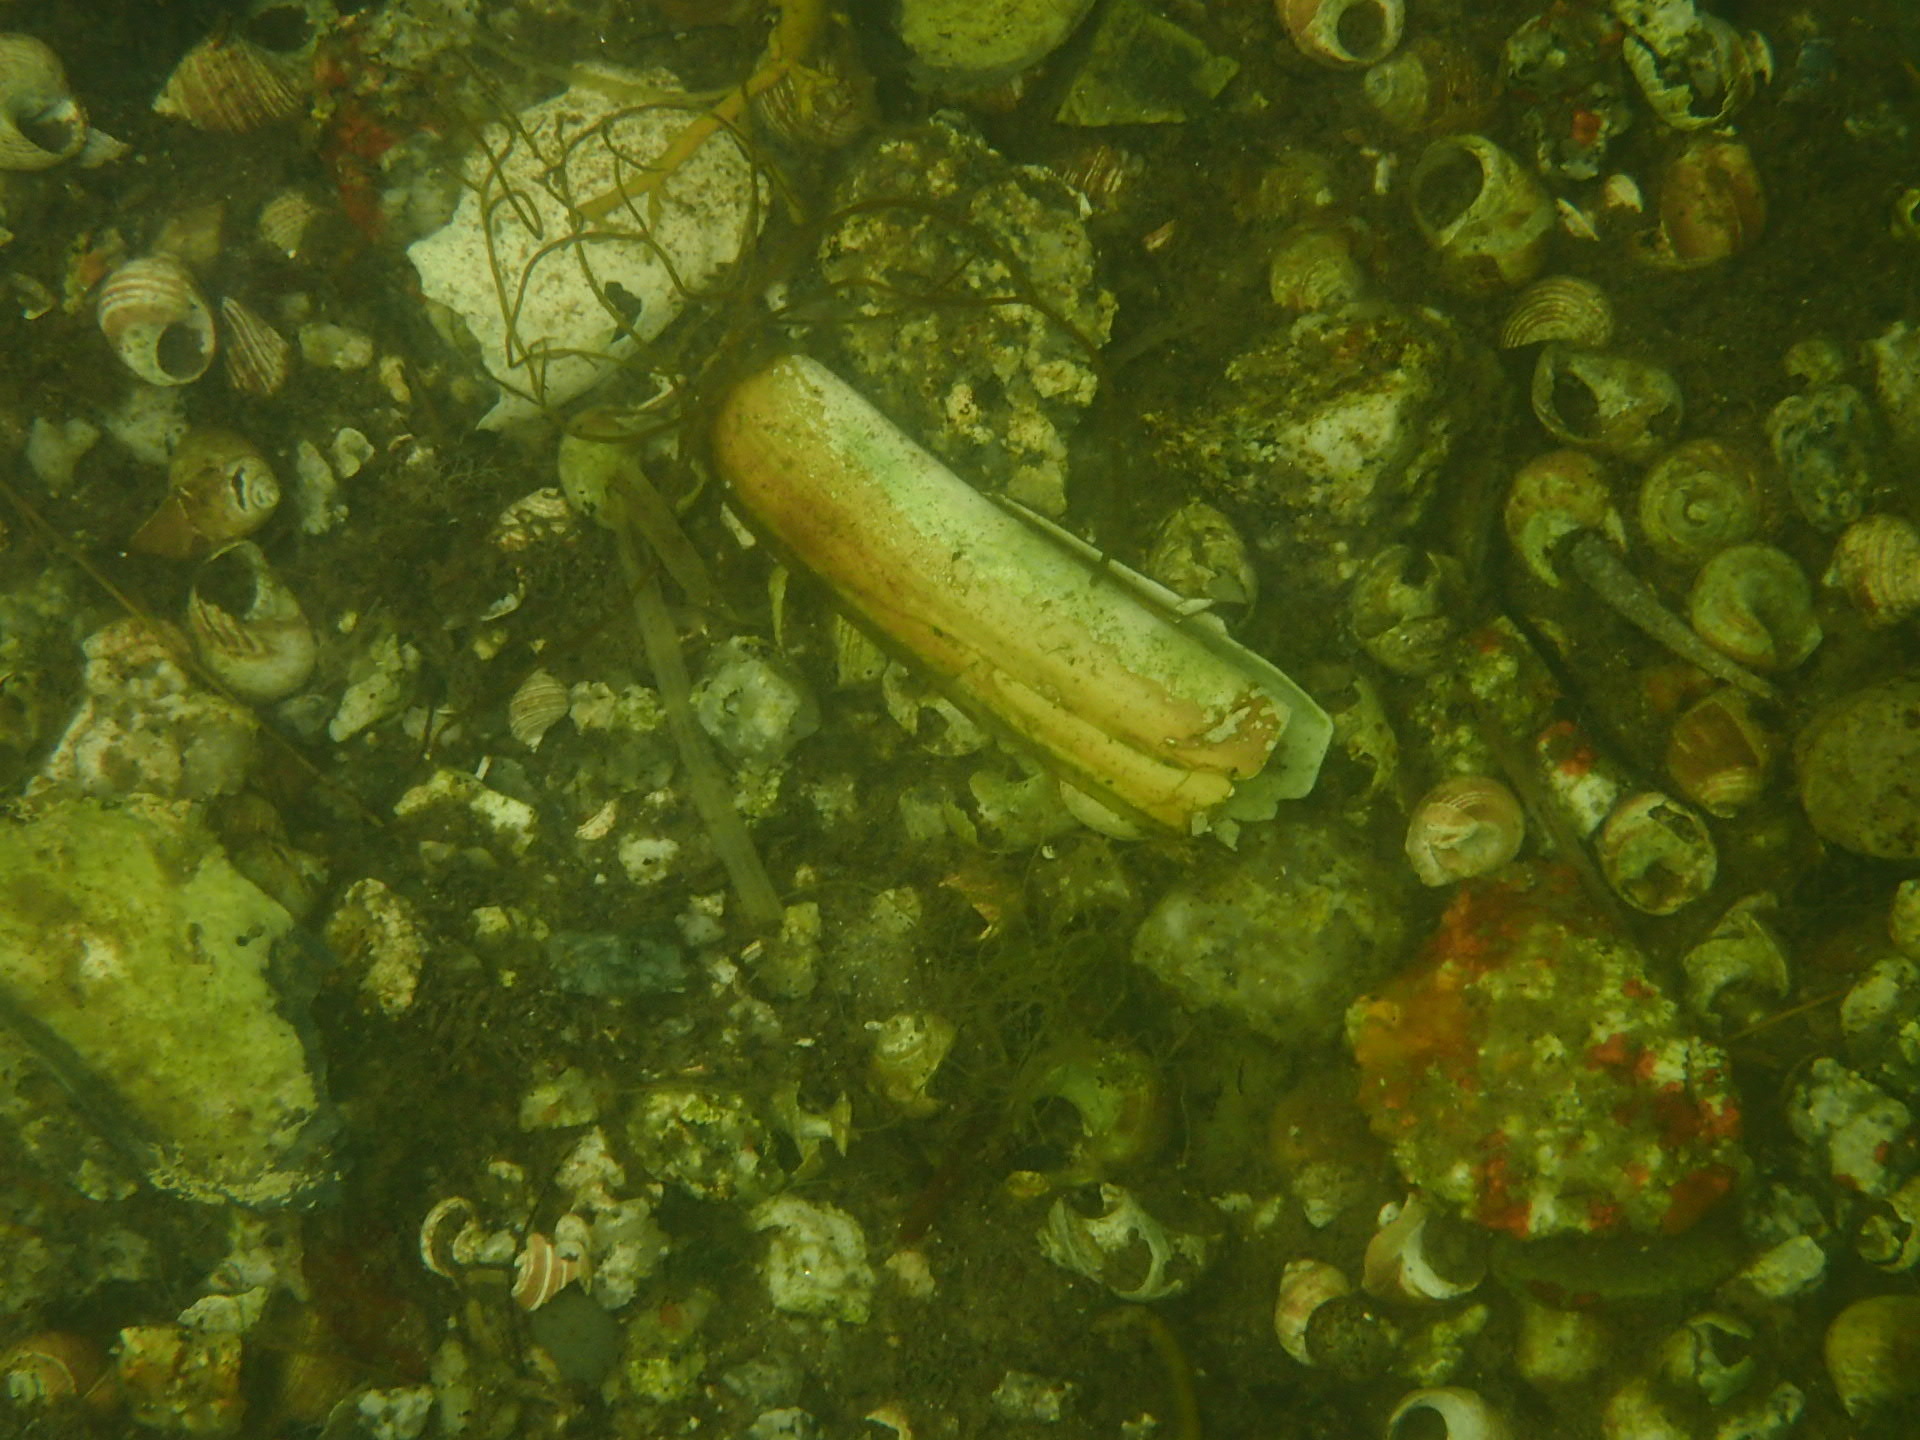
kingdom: Animalia
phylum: Mollusca
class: Bivalvia
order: Adapedonta
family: Pharidae
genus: Ensis
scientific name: Ensis leei
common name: American jack knife clam
